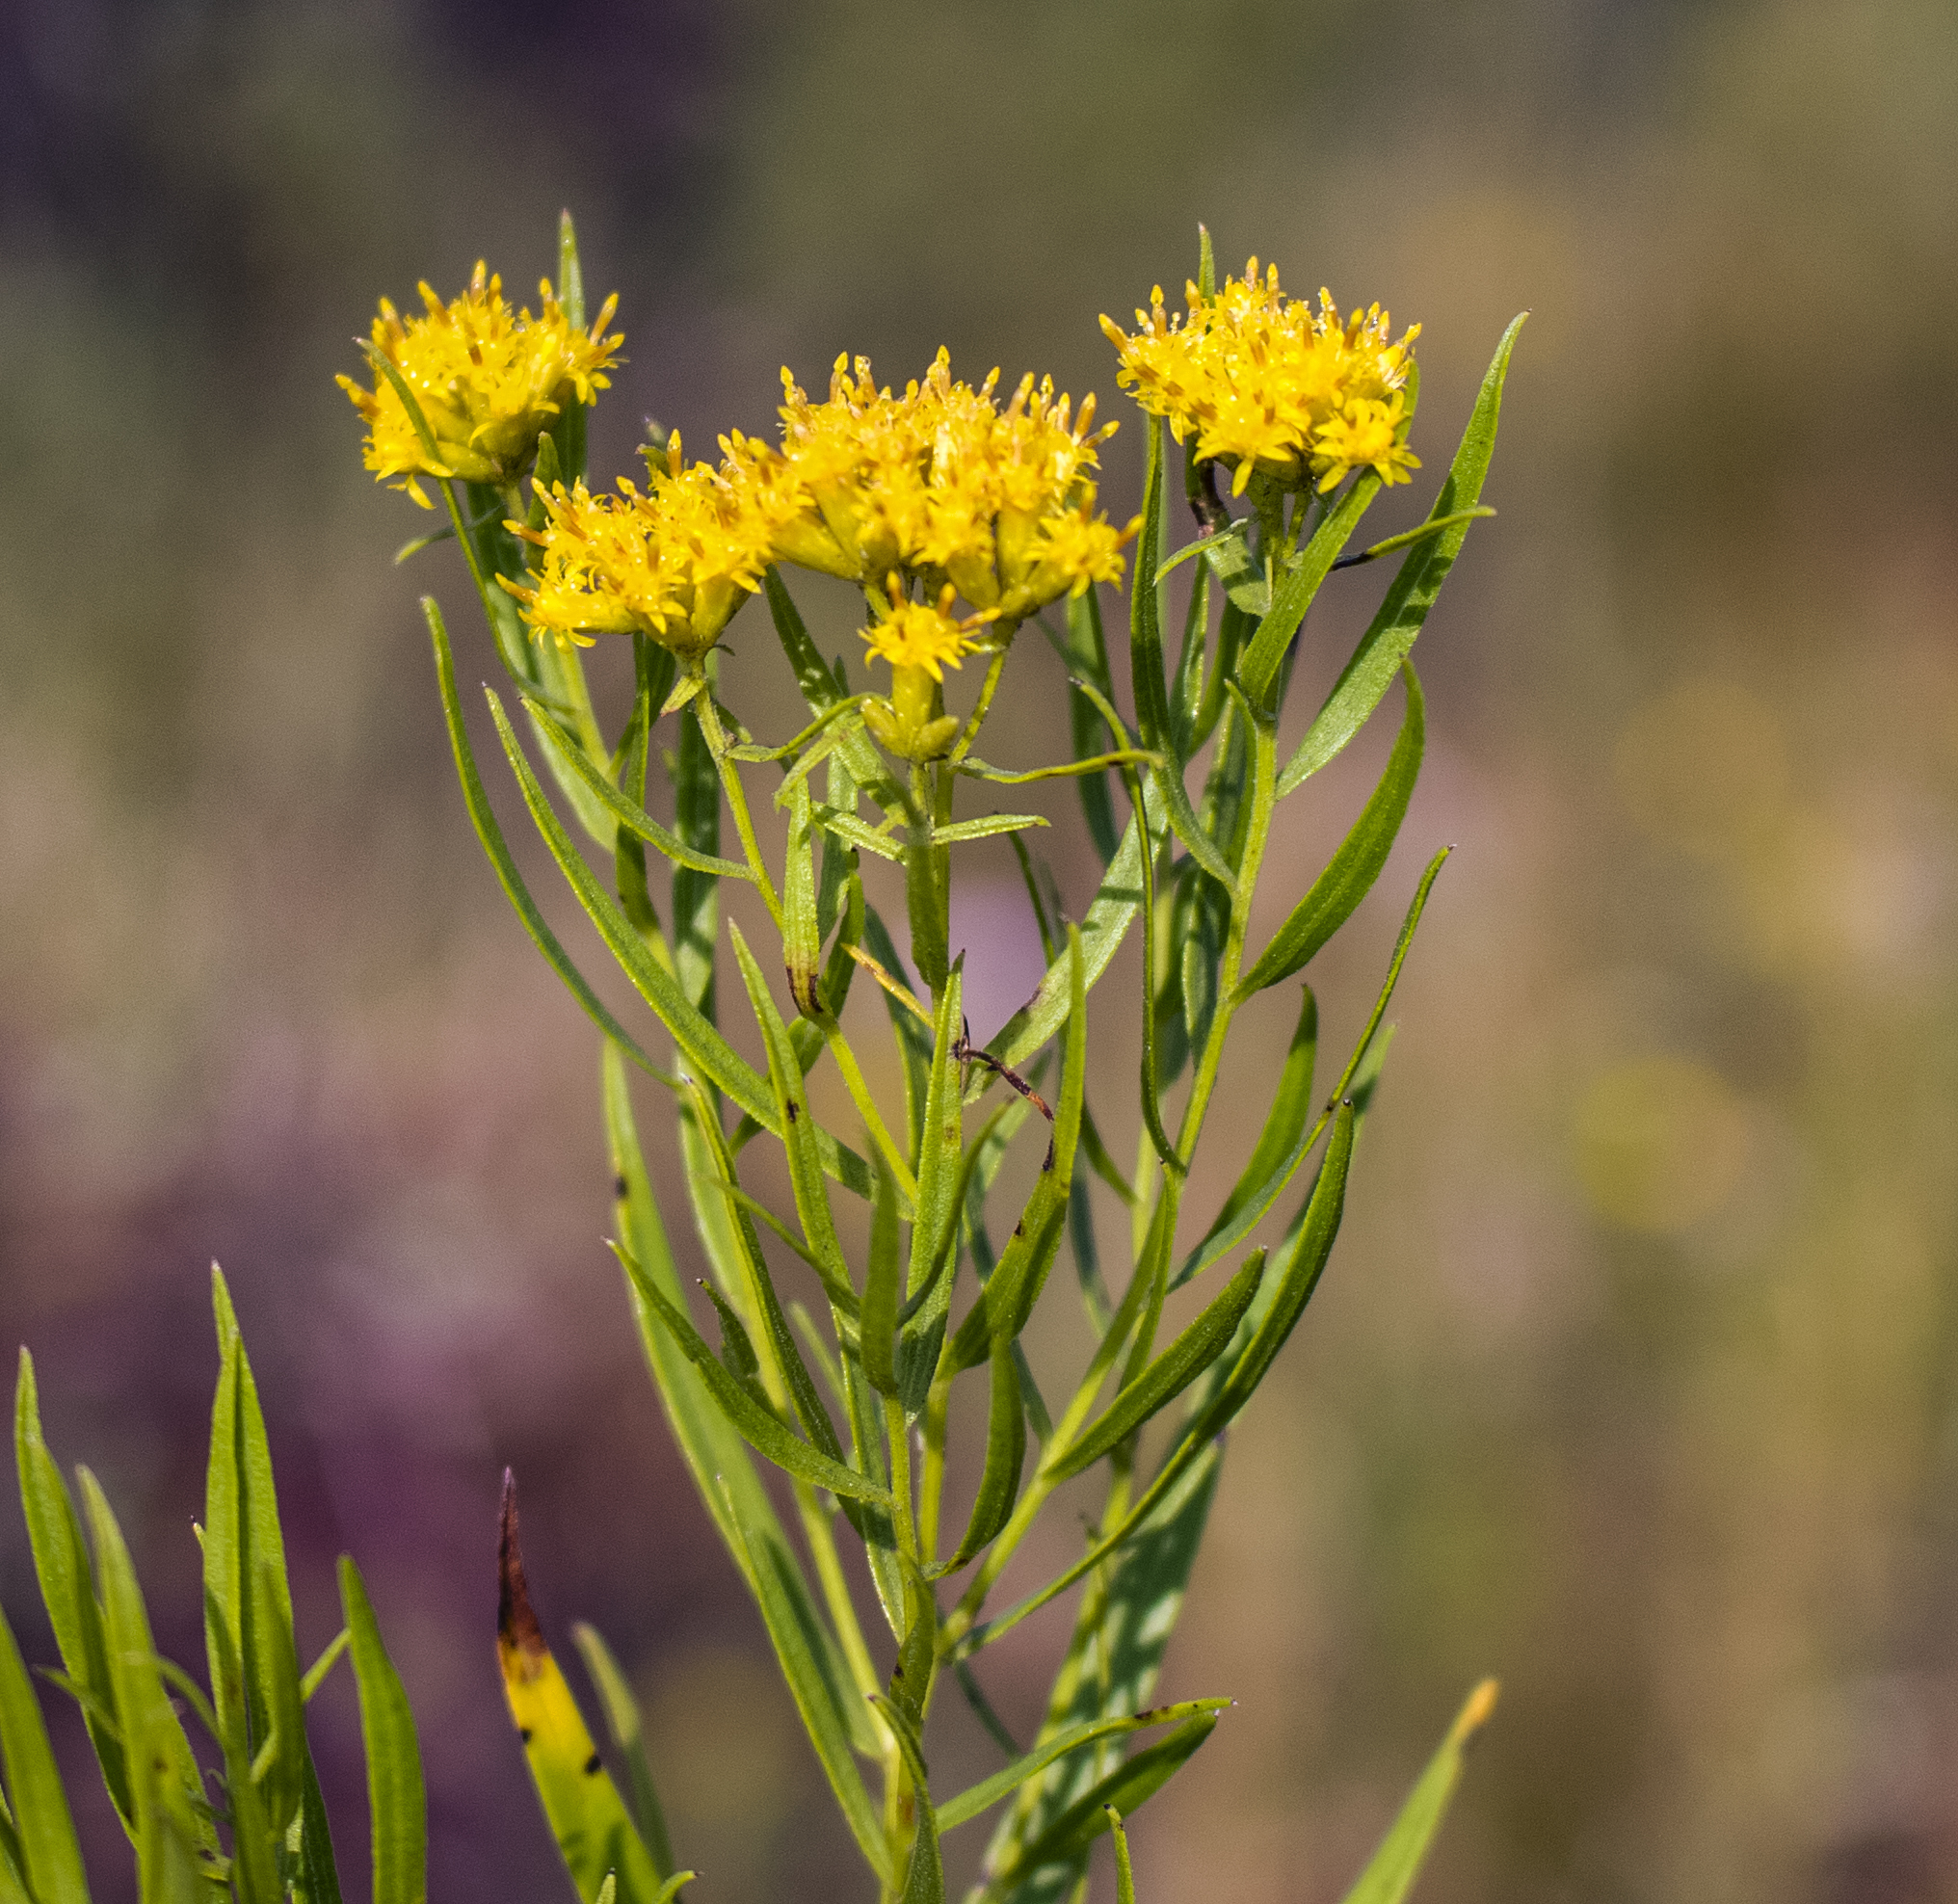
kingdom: Plantae
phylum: Tracheophyta
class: Magnoliopsida
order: Asterales
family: Asteraceae
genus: Euthamia
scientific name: Euthamia graminifolia
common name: Common goldentop
